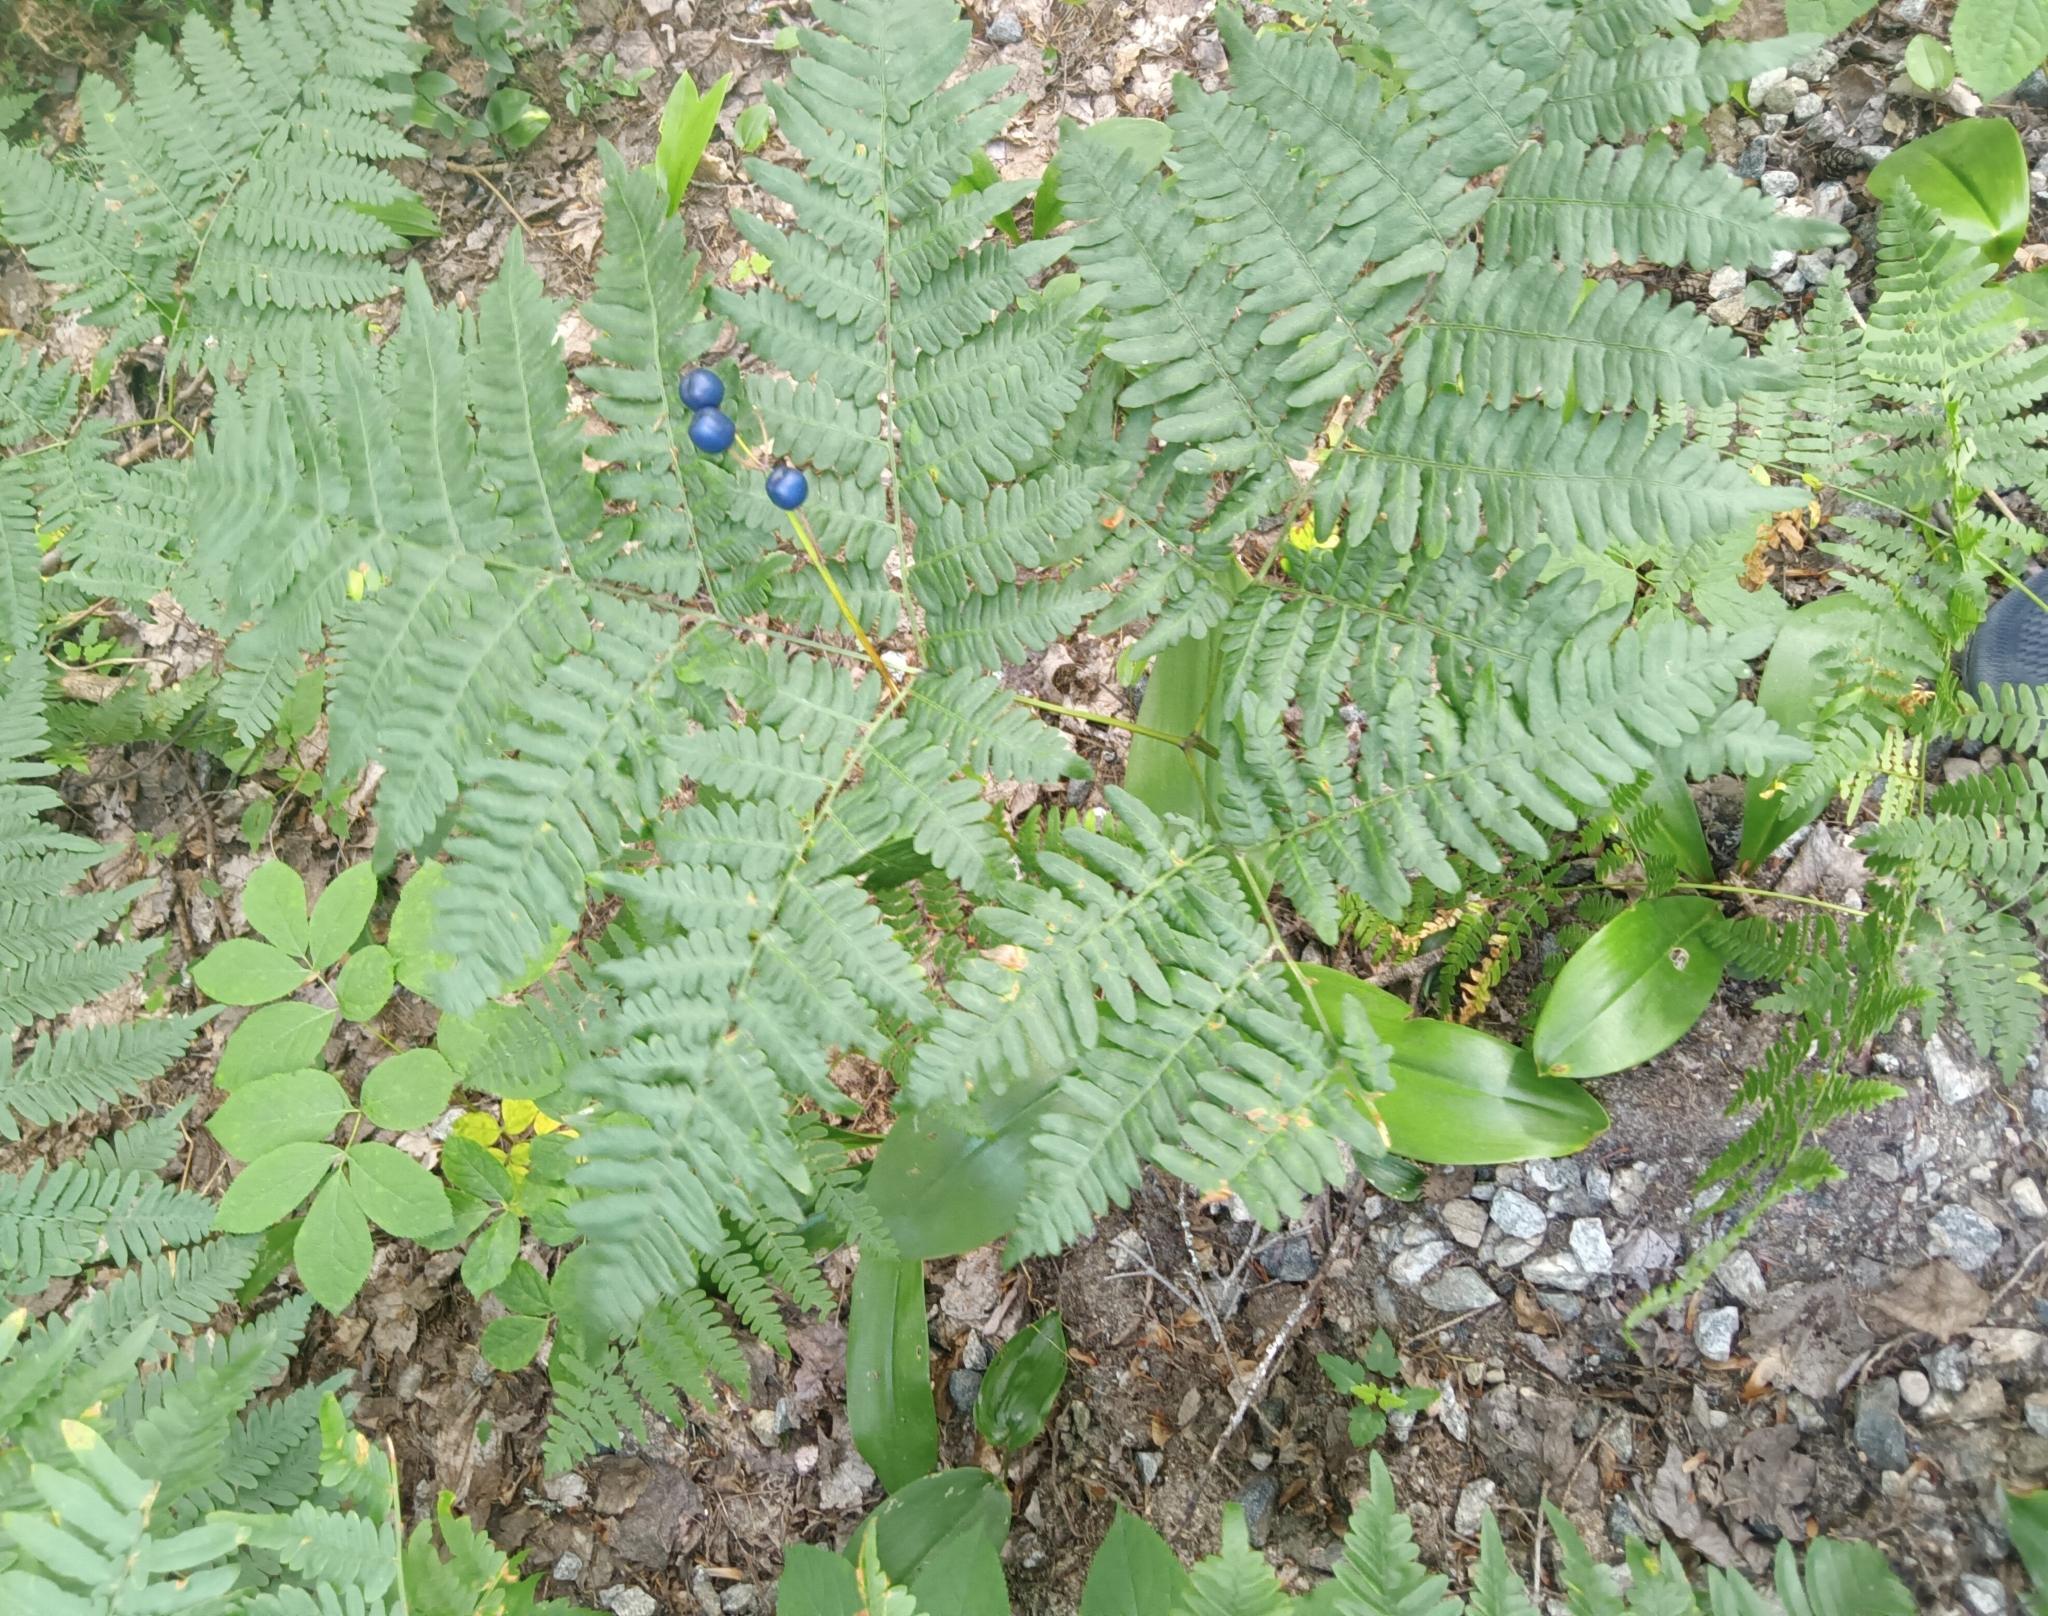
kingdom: Plantae
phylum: Tracheophyta
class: Polypodiopsida
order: Polypodiales
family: Dennstaedtiaceae
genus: Pteridium
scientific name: Pteridium aquilinum
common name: Bracken
